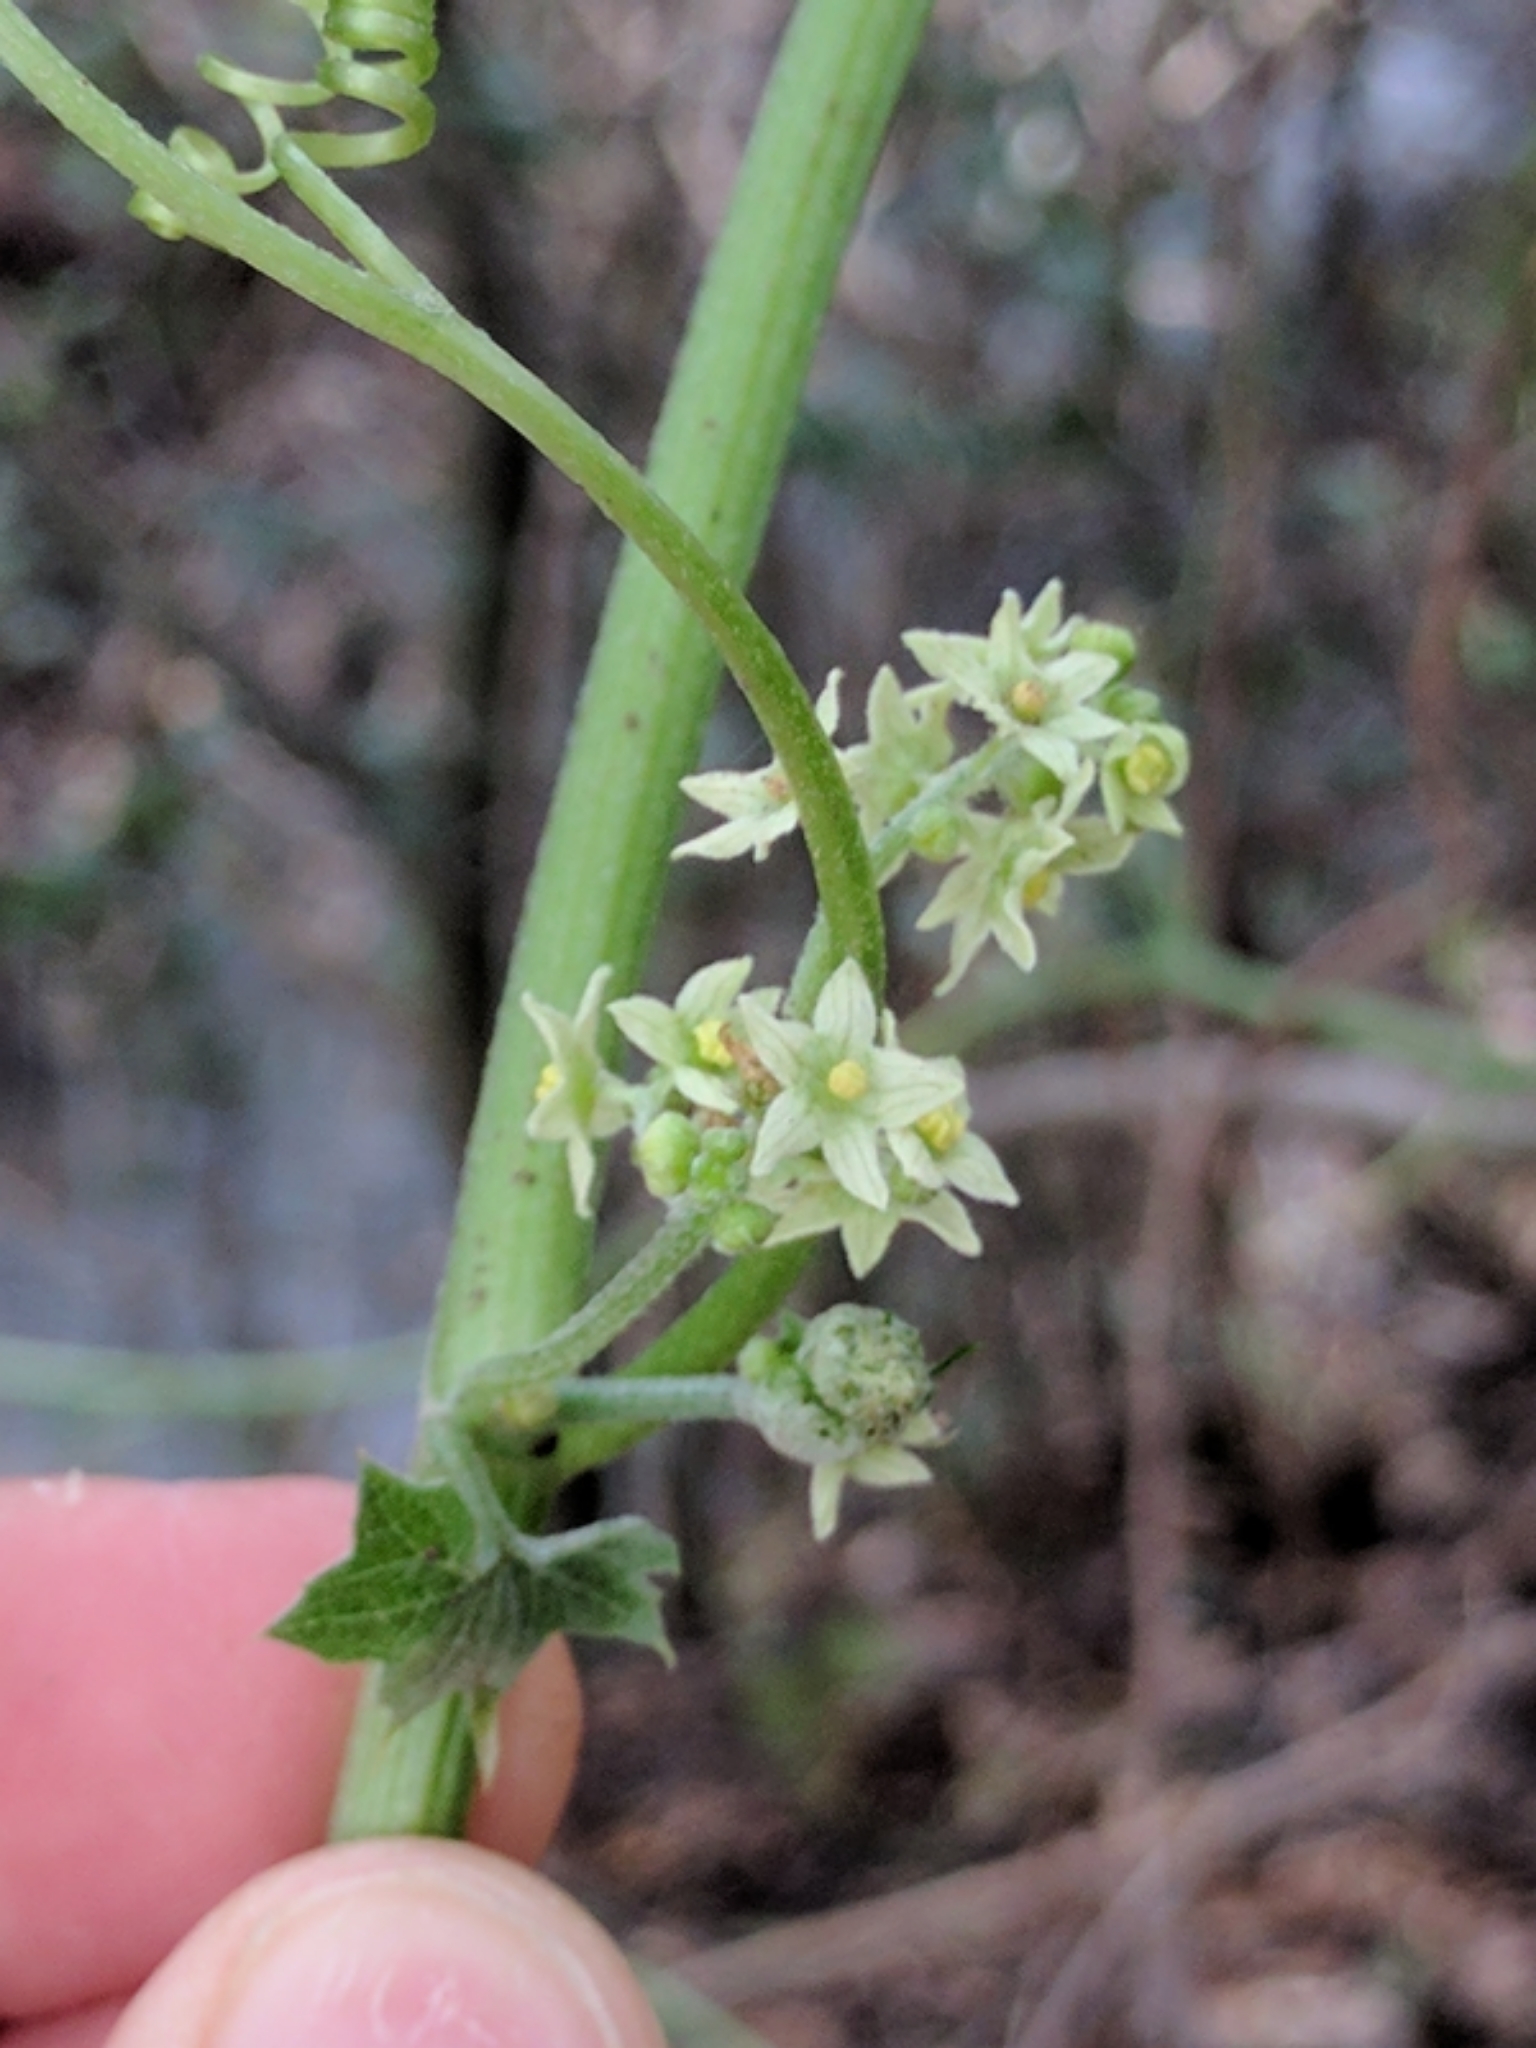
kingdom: Plantae
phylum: Tracheophyta
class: Magnoliopsida
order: Cucurbitales
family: Cucurbitaceae
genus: Marah
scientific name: Marah fabacea
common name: California manroot
